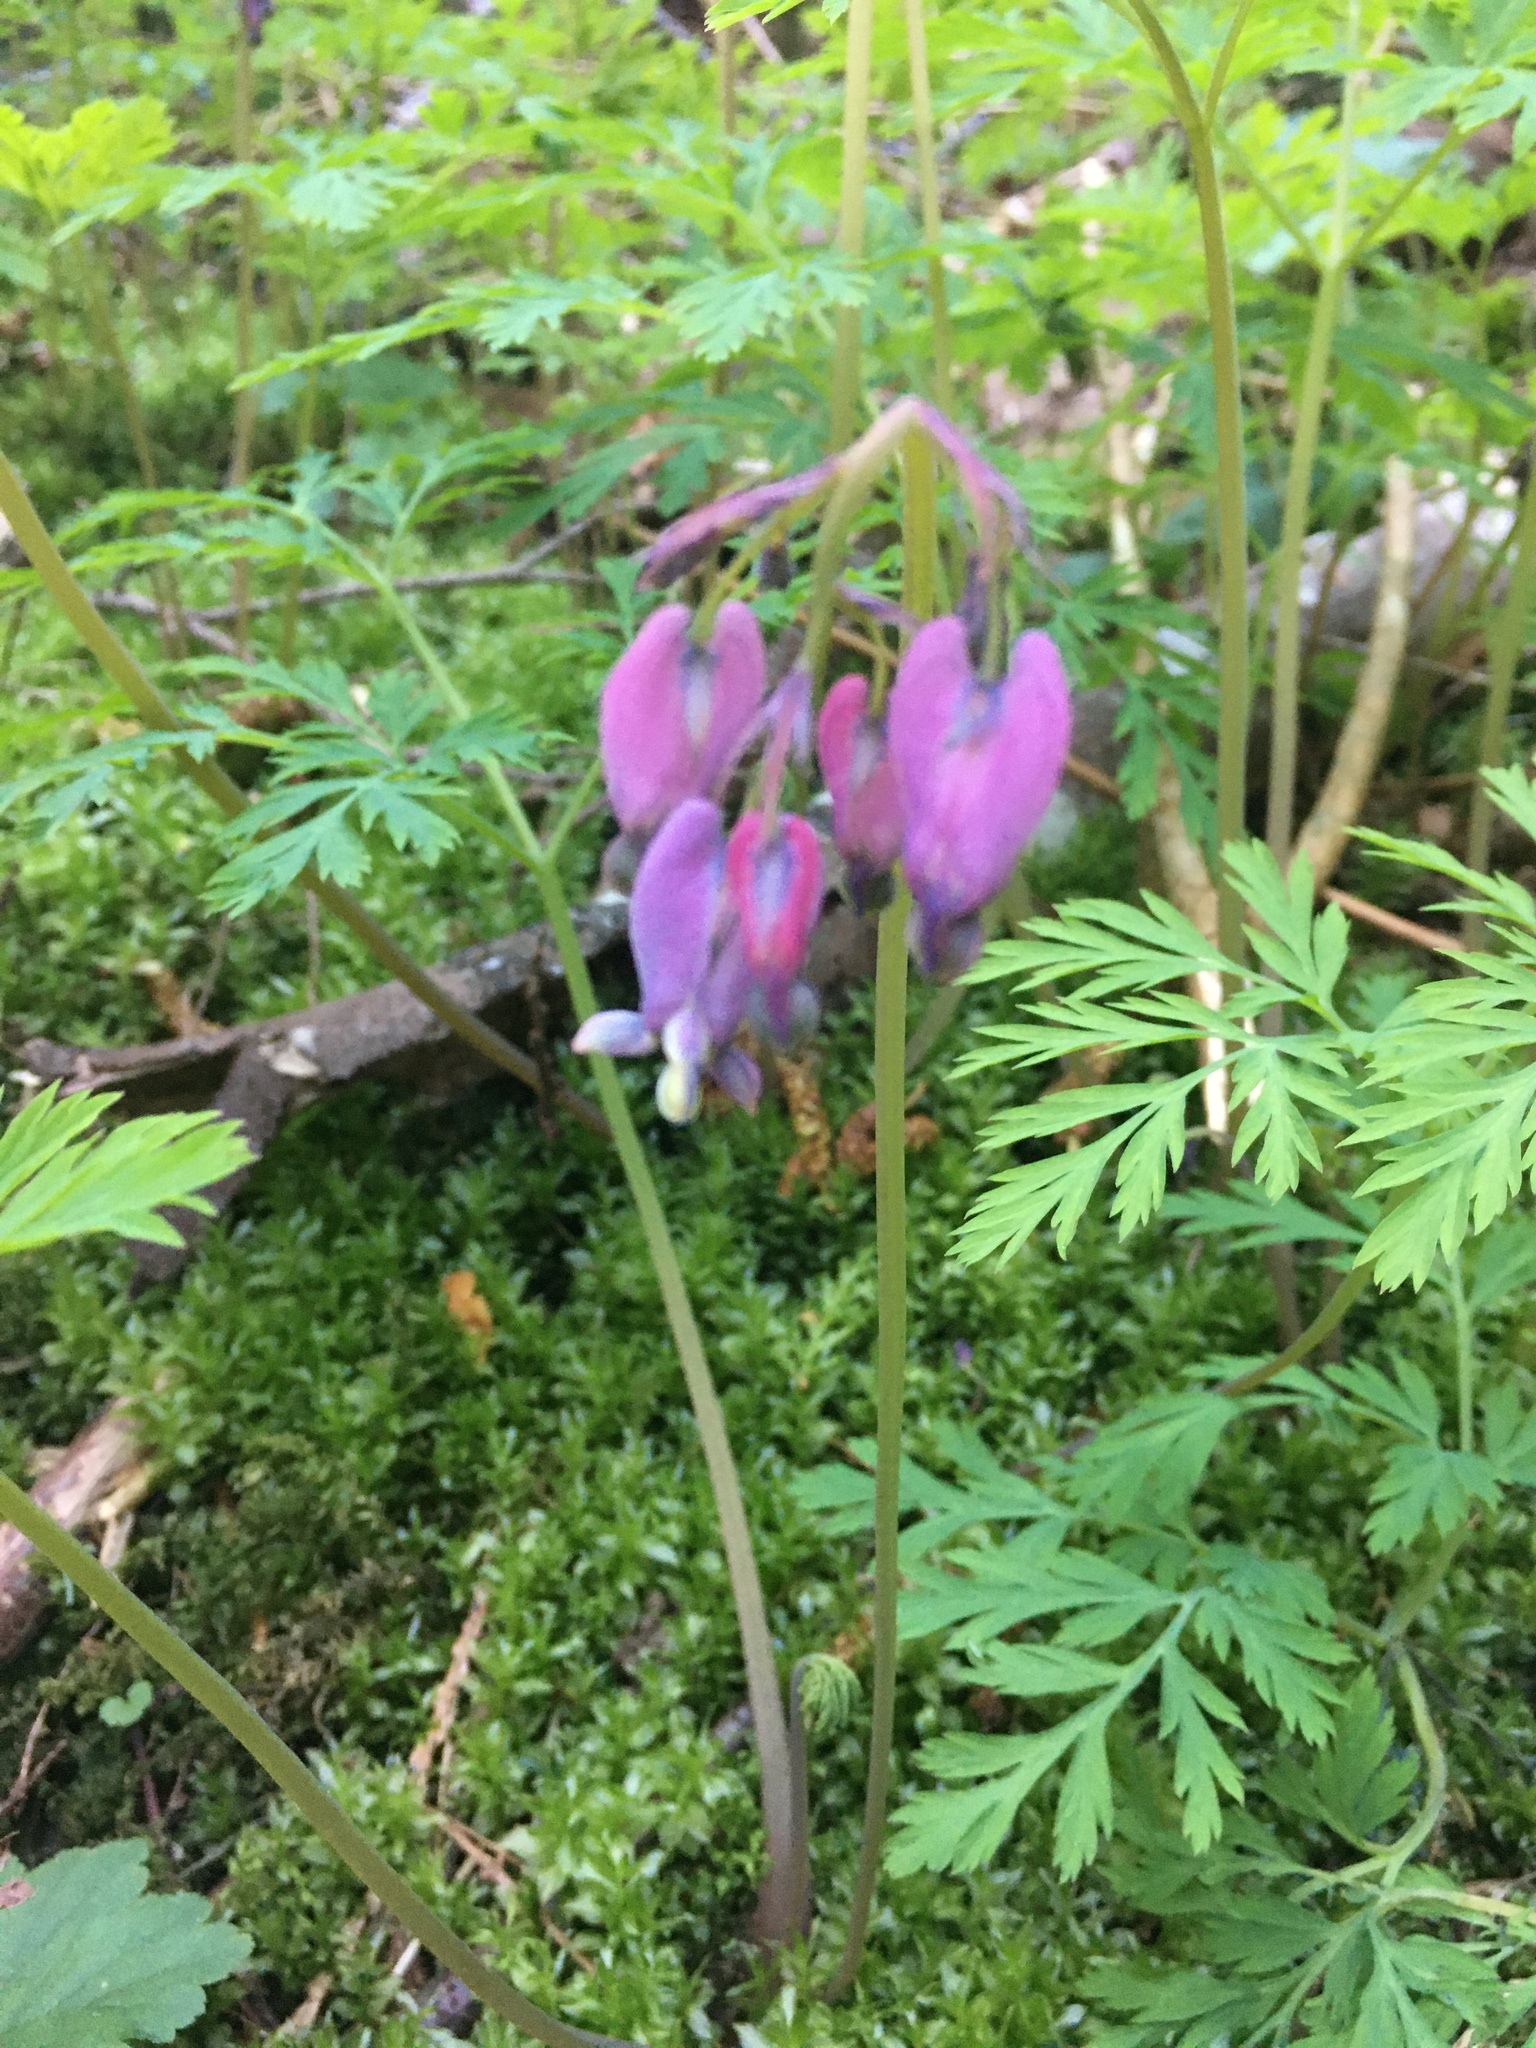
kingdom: Plantae
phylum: Tracheophyta
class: Magnoliopsida
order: Ranunculales
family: Papaveraceae
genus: Dicentra
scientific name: Dicentra formosa
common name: Bleeding-heart
